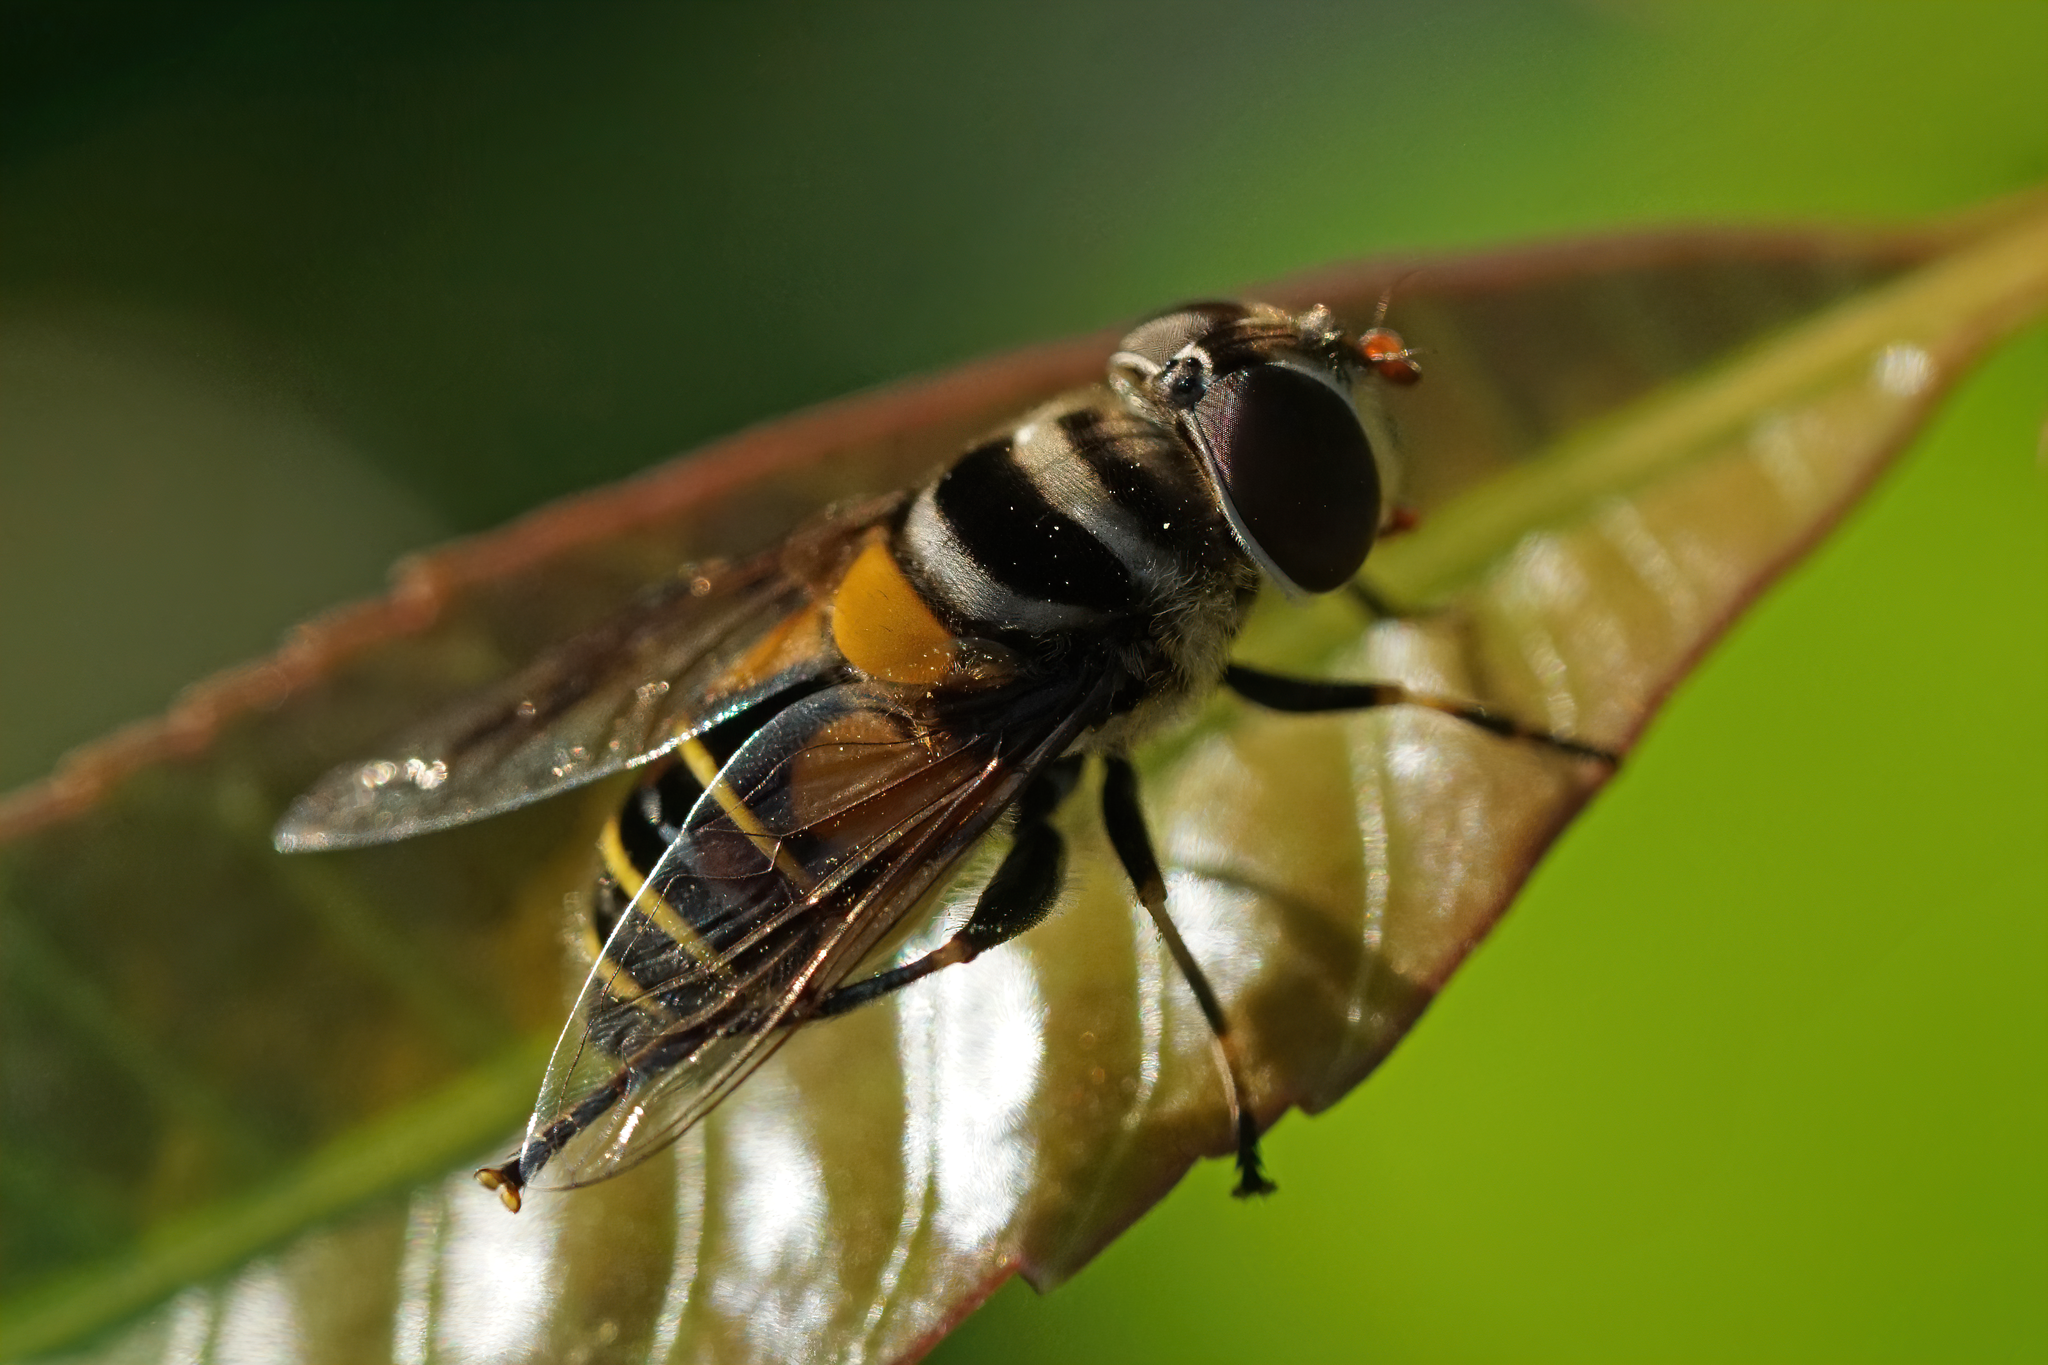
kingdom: Animalia
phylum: Arthropoda
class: Insecta
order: Diptera
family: Syrphidae
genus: Palpada
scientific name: Palpada agrorum
